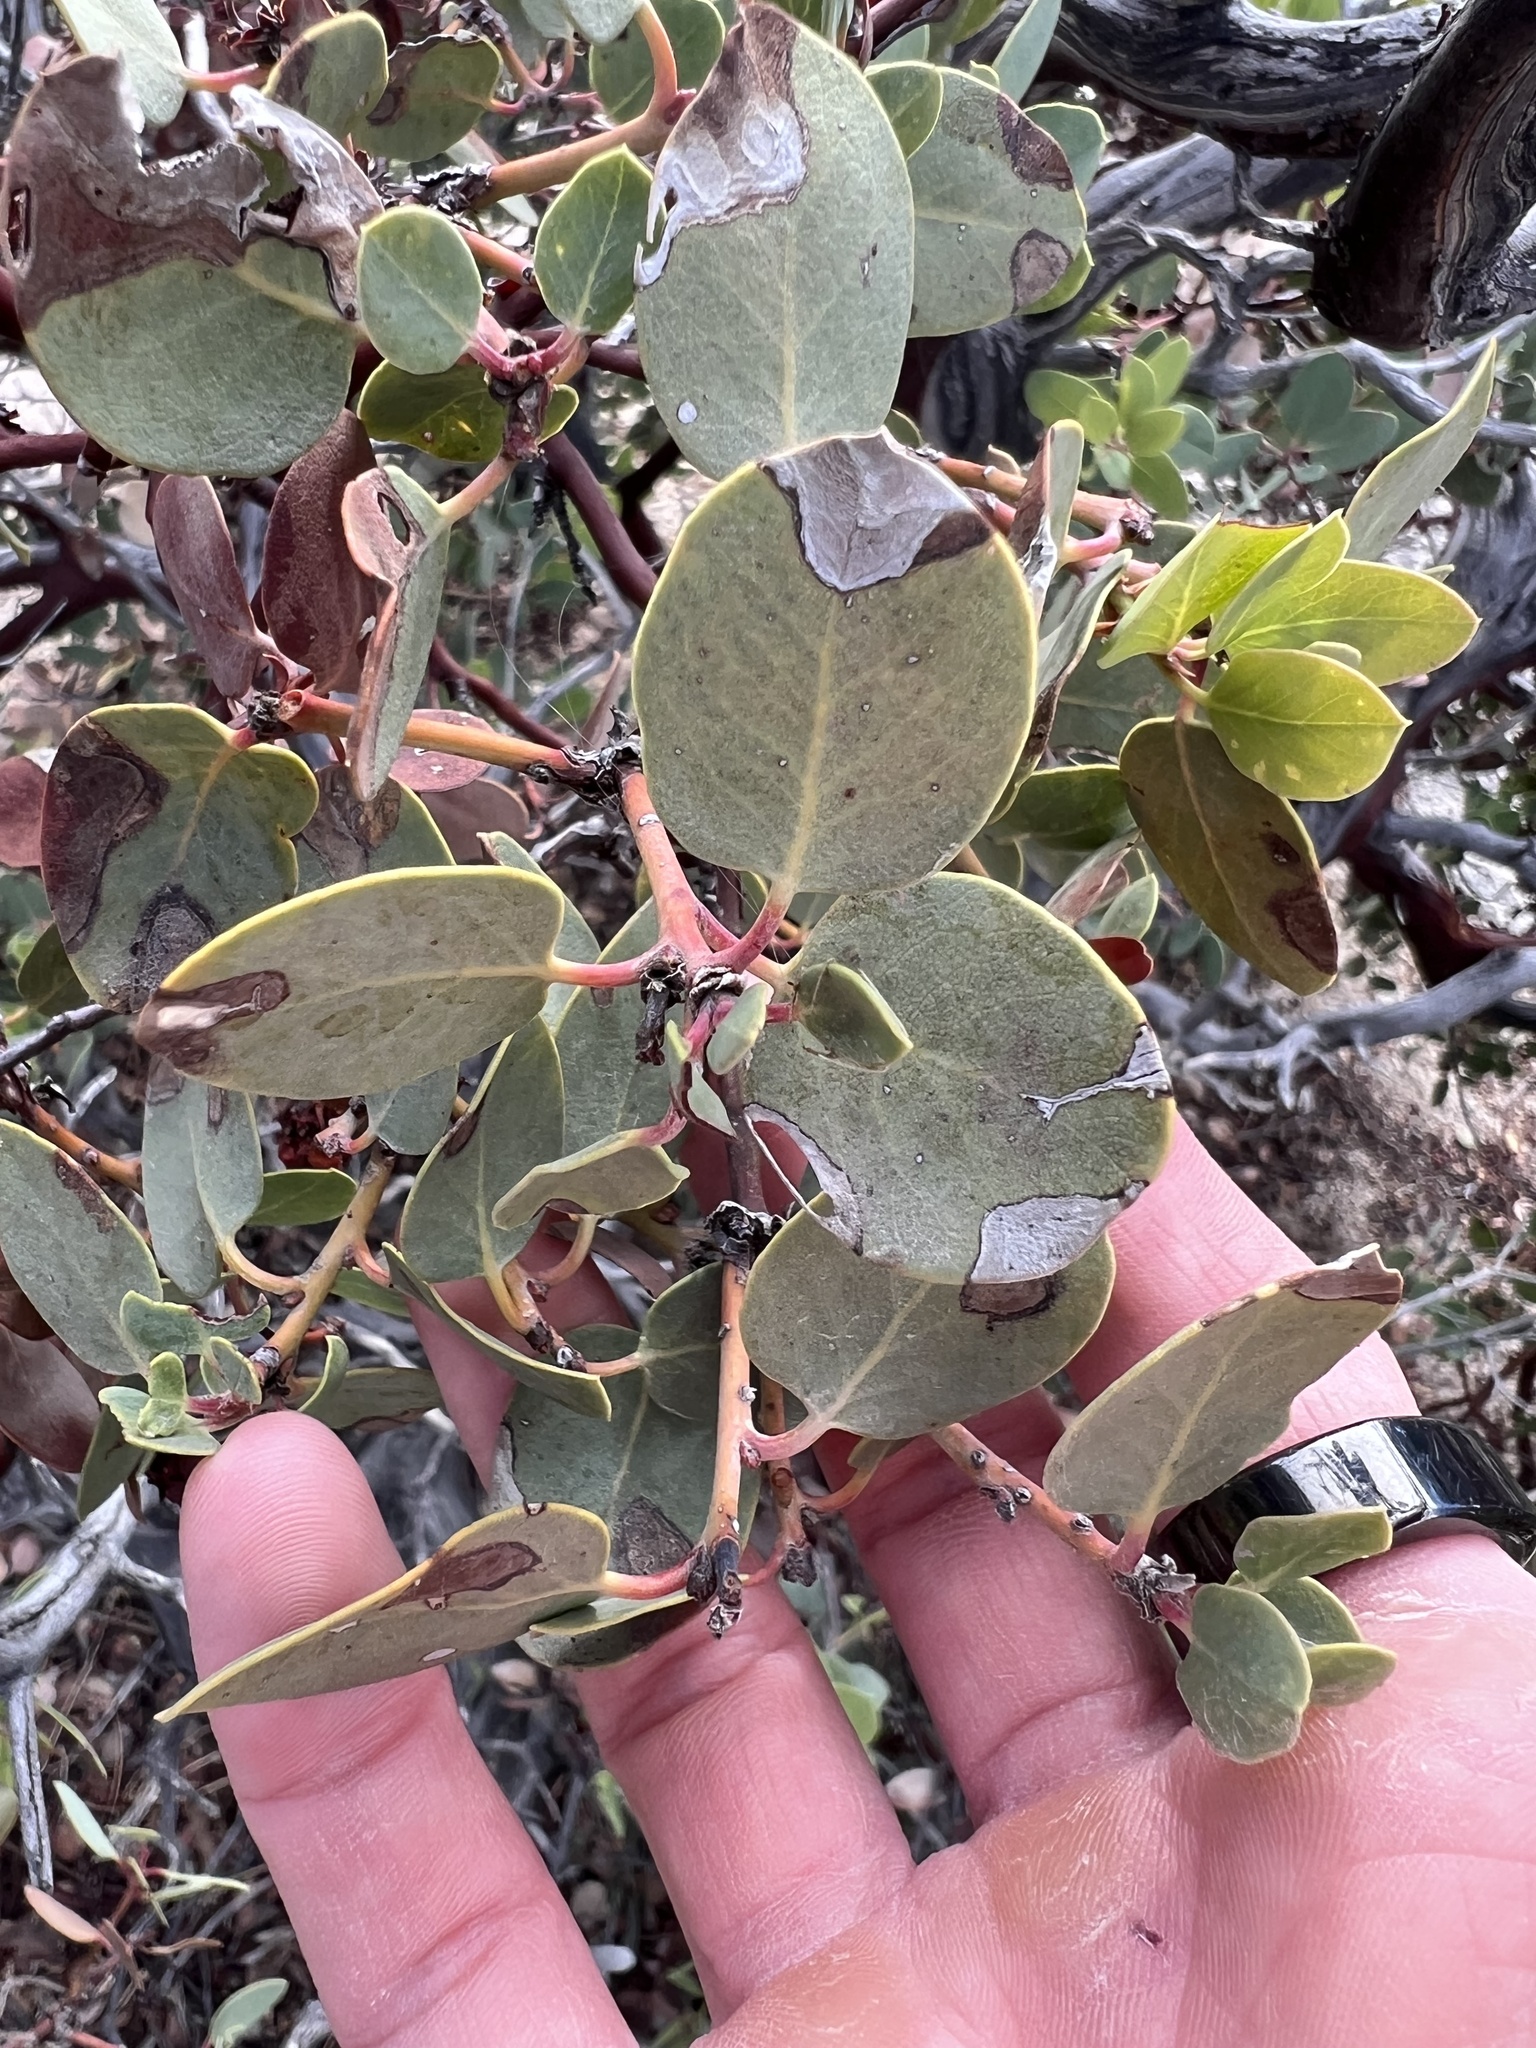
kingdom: Plantae
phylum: Tracheophyta
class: Magnoliopsida
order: Ericales
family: Ericaceae
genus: Arctostaphylos
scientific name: Arctostaphylos glauca
